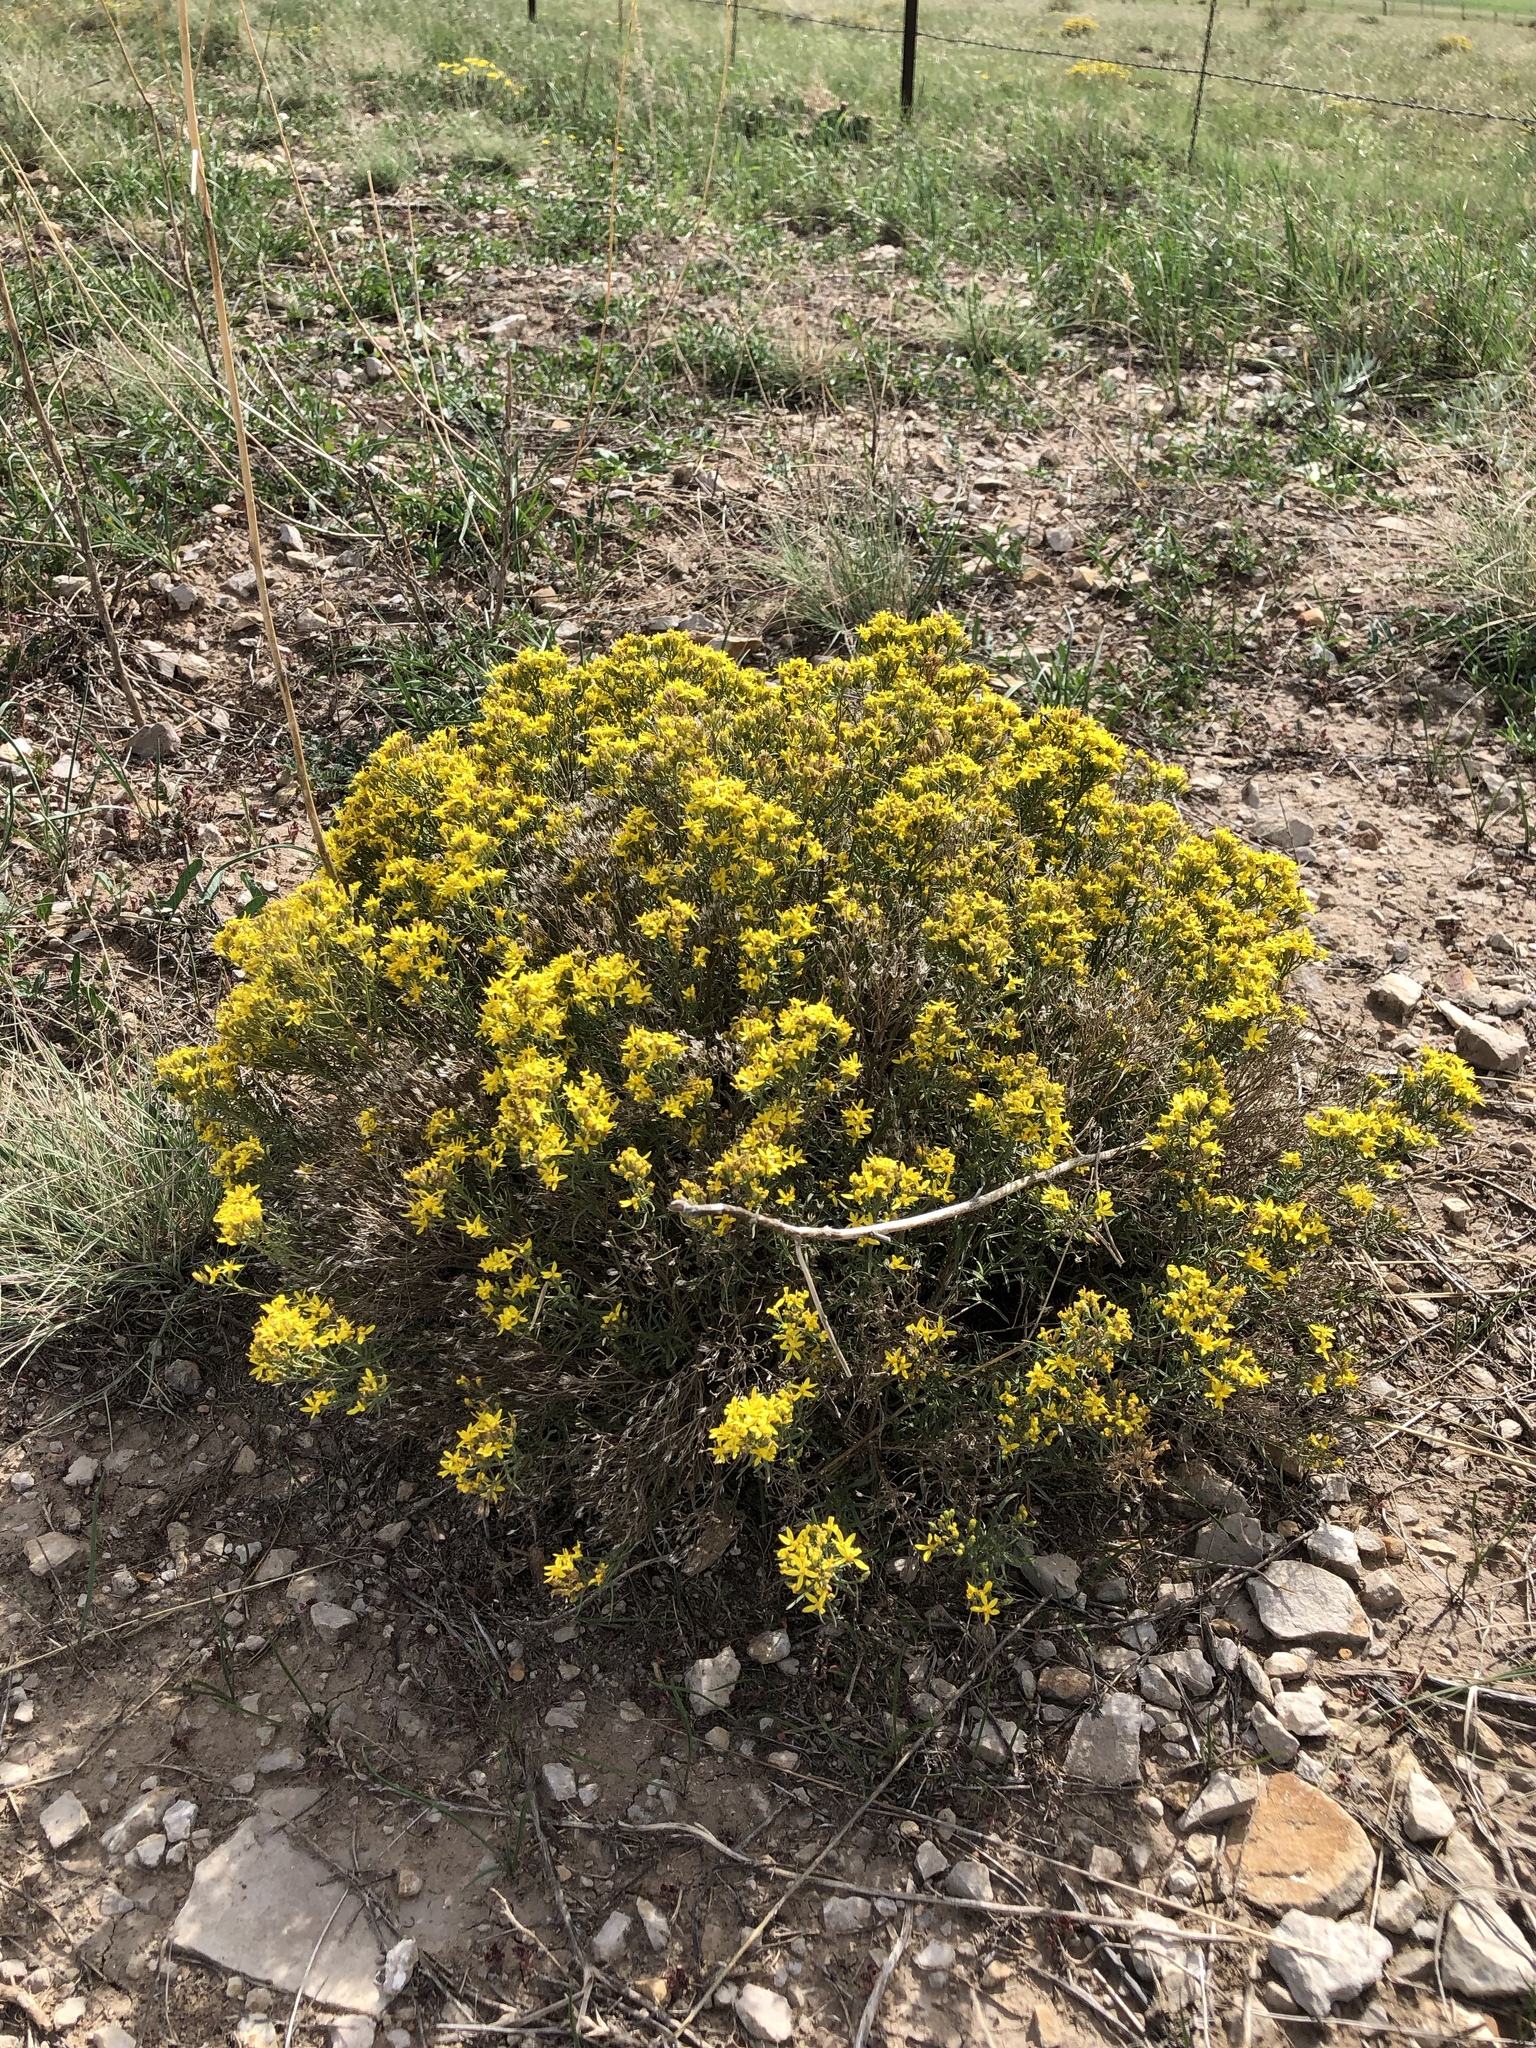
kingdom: Plantae
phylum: Tracheophyta
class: Magnoliopsida
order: Asterales
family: Asteraceae
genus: Gutierrezia
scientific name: Gutierrezia sarothrae
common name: Broom snakeweed
